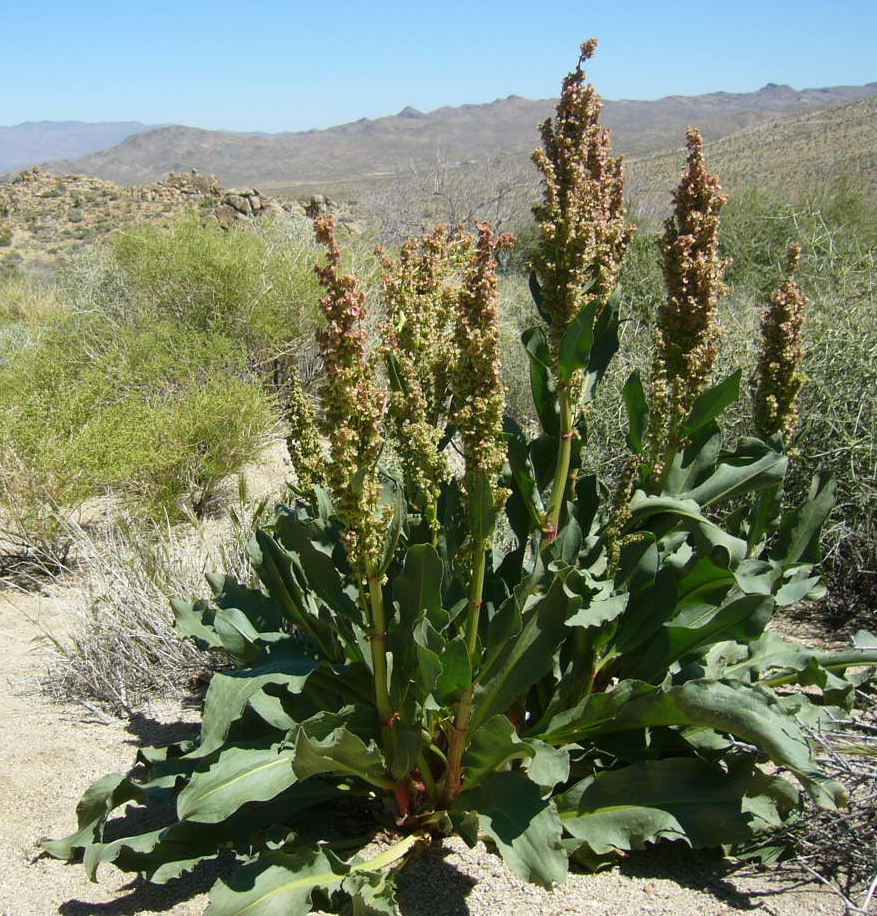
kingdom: Plantae
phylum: Tracheophyta
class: Magnoliopsida
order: Caryophyllales
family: Polygonaceae
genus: Rumex
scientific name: Rumex hymenosepalus
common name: Ganagra
